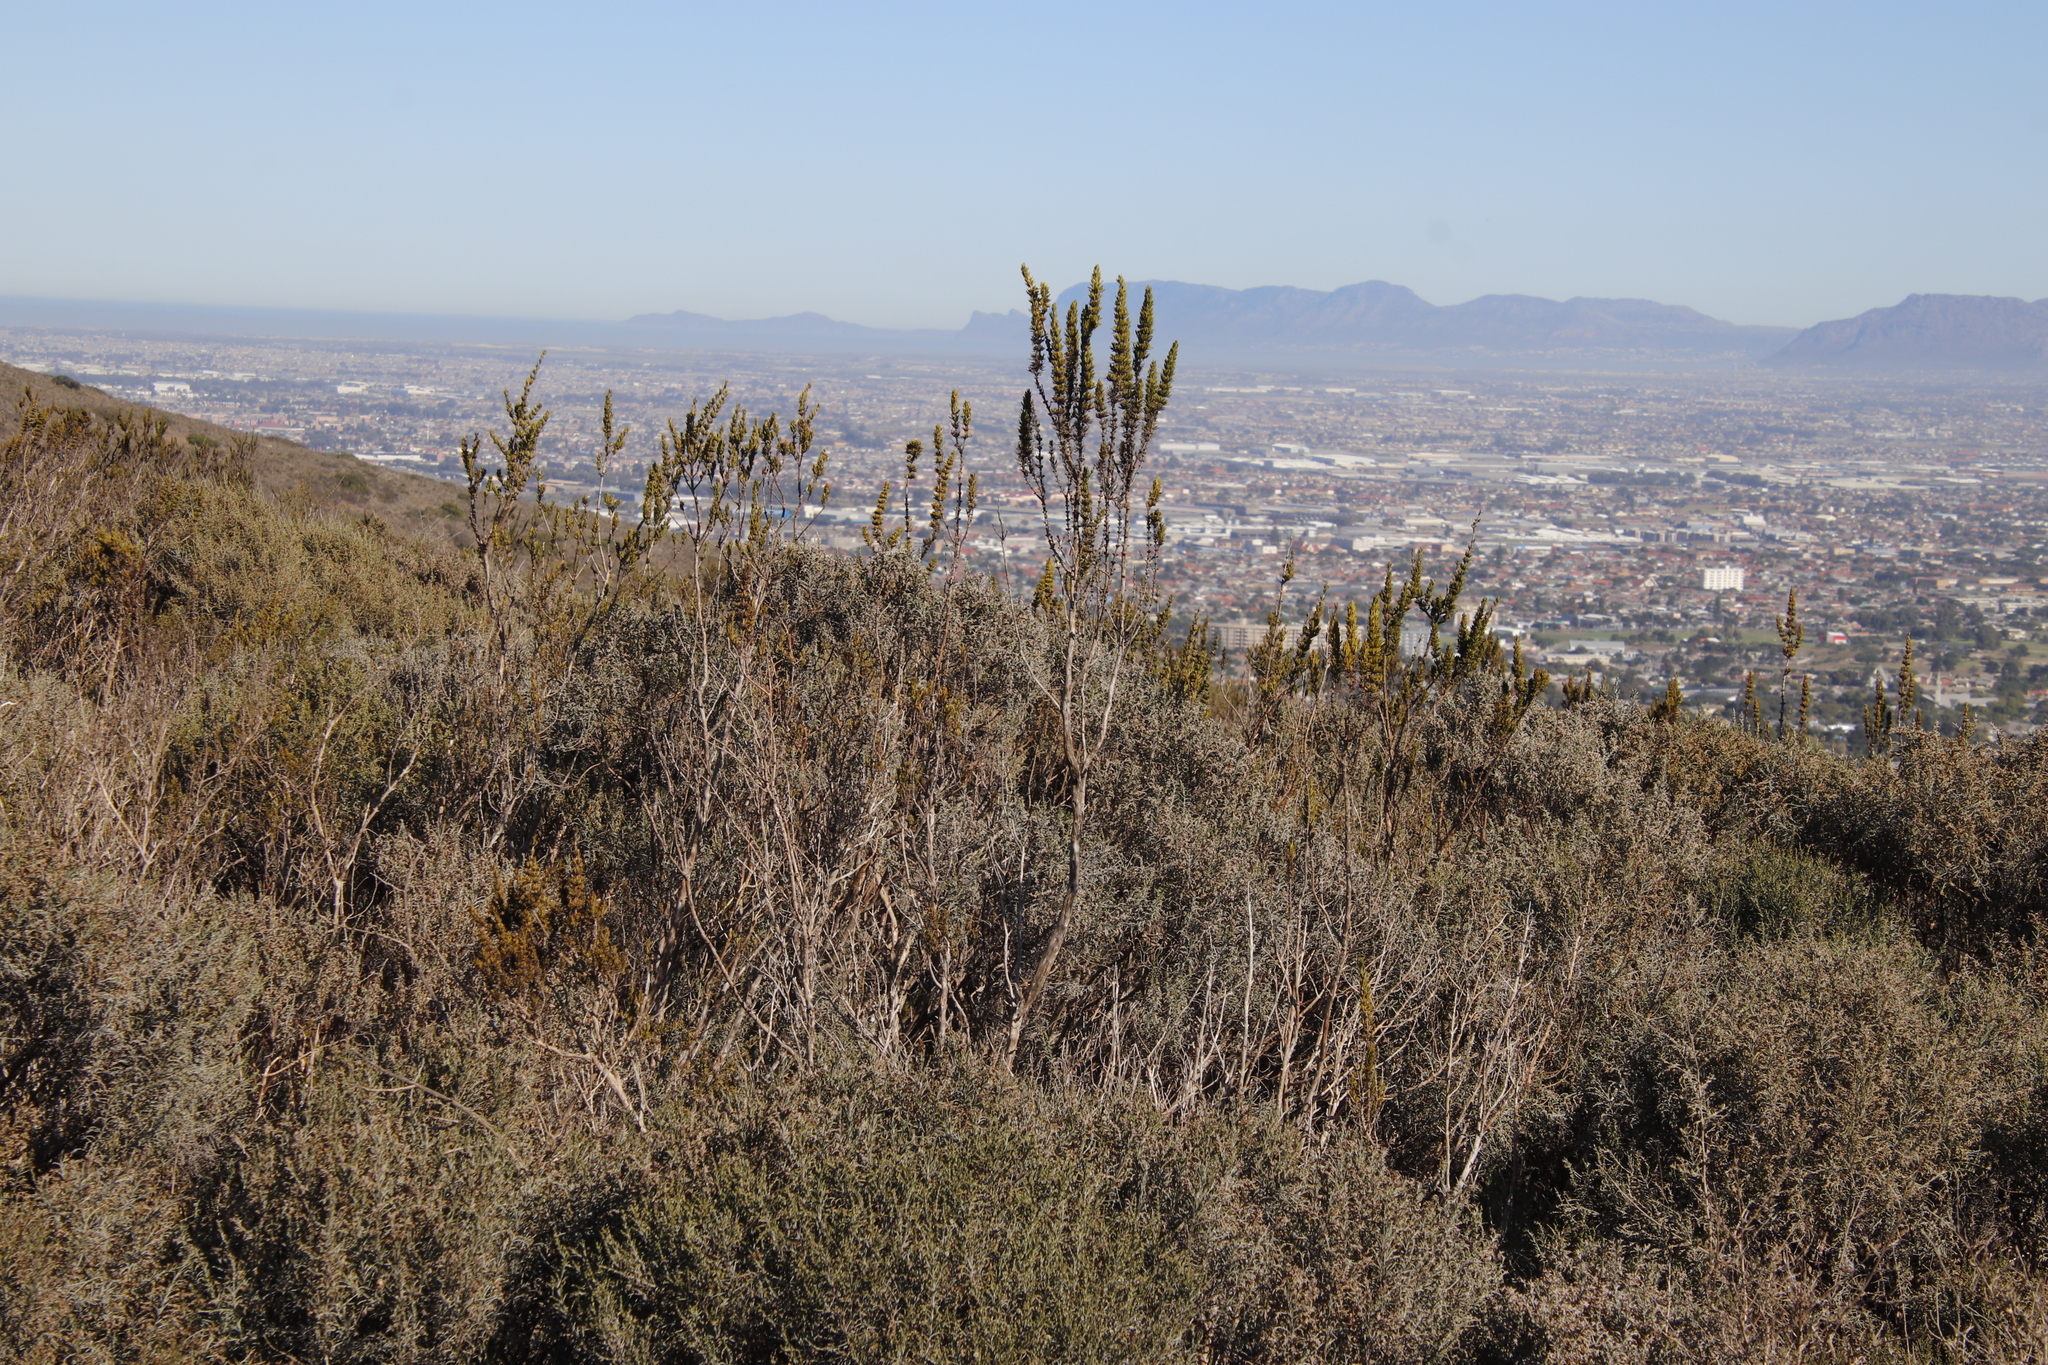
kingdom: Plantae
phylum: Tracheophyta
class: Magnoliopsida
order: Gentianales
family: Rubiaceae
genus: Anthospermum
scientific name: Anthospermum aethiopicum
